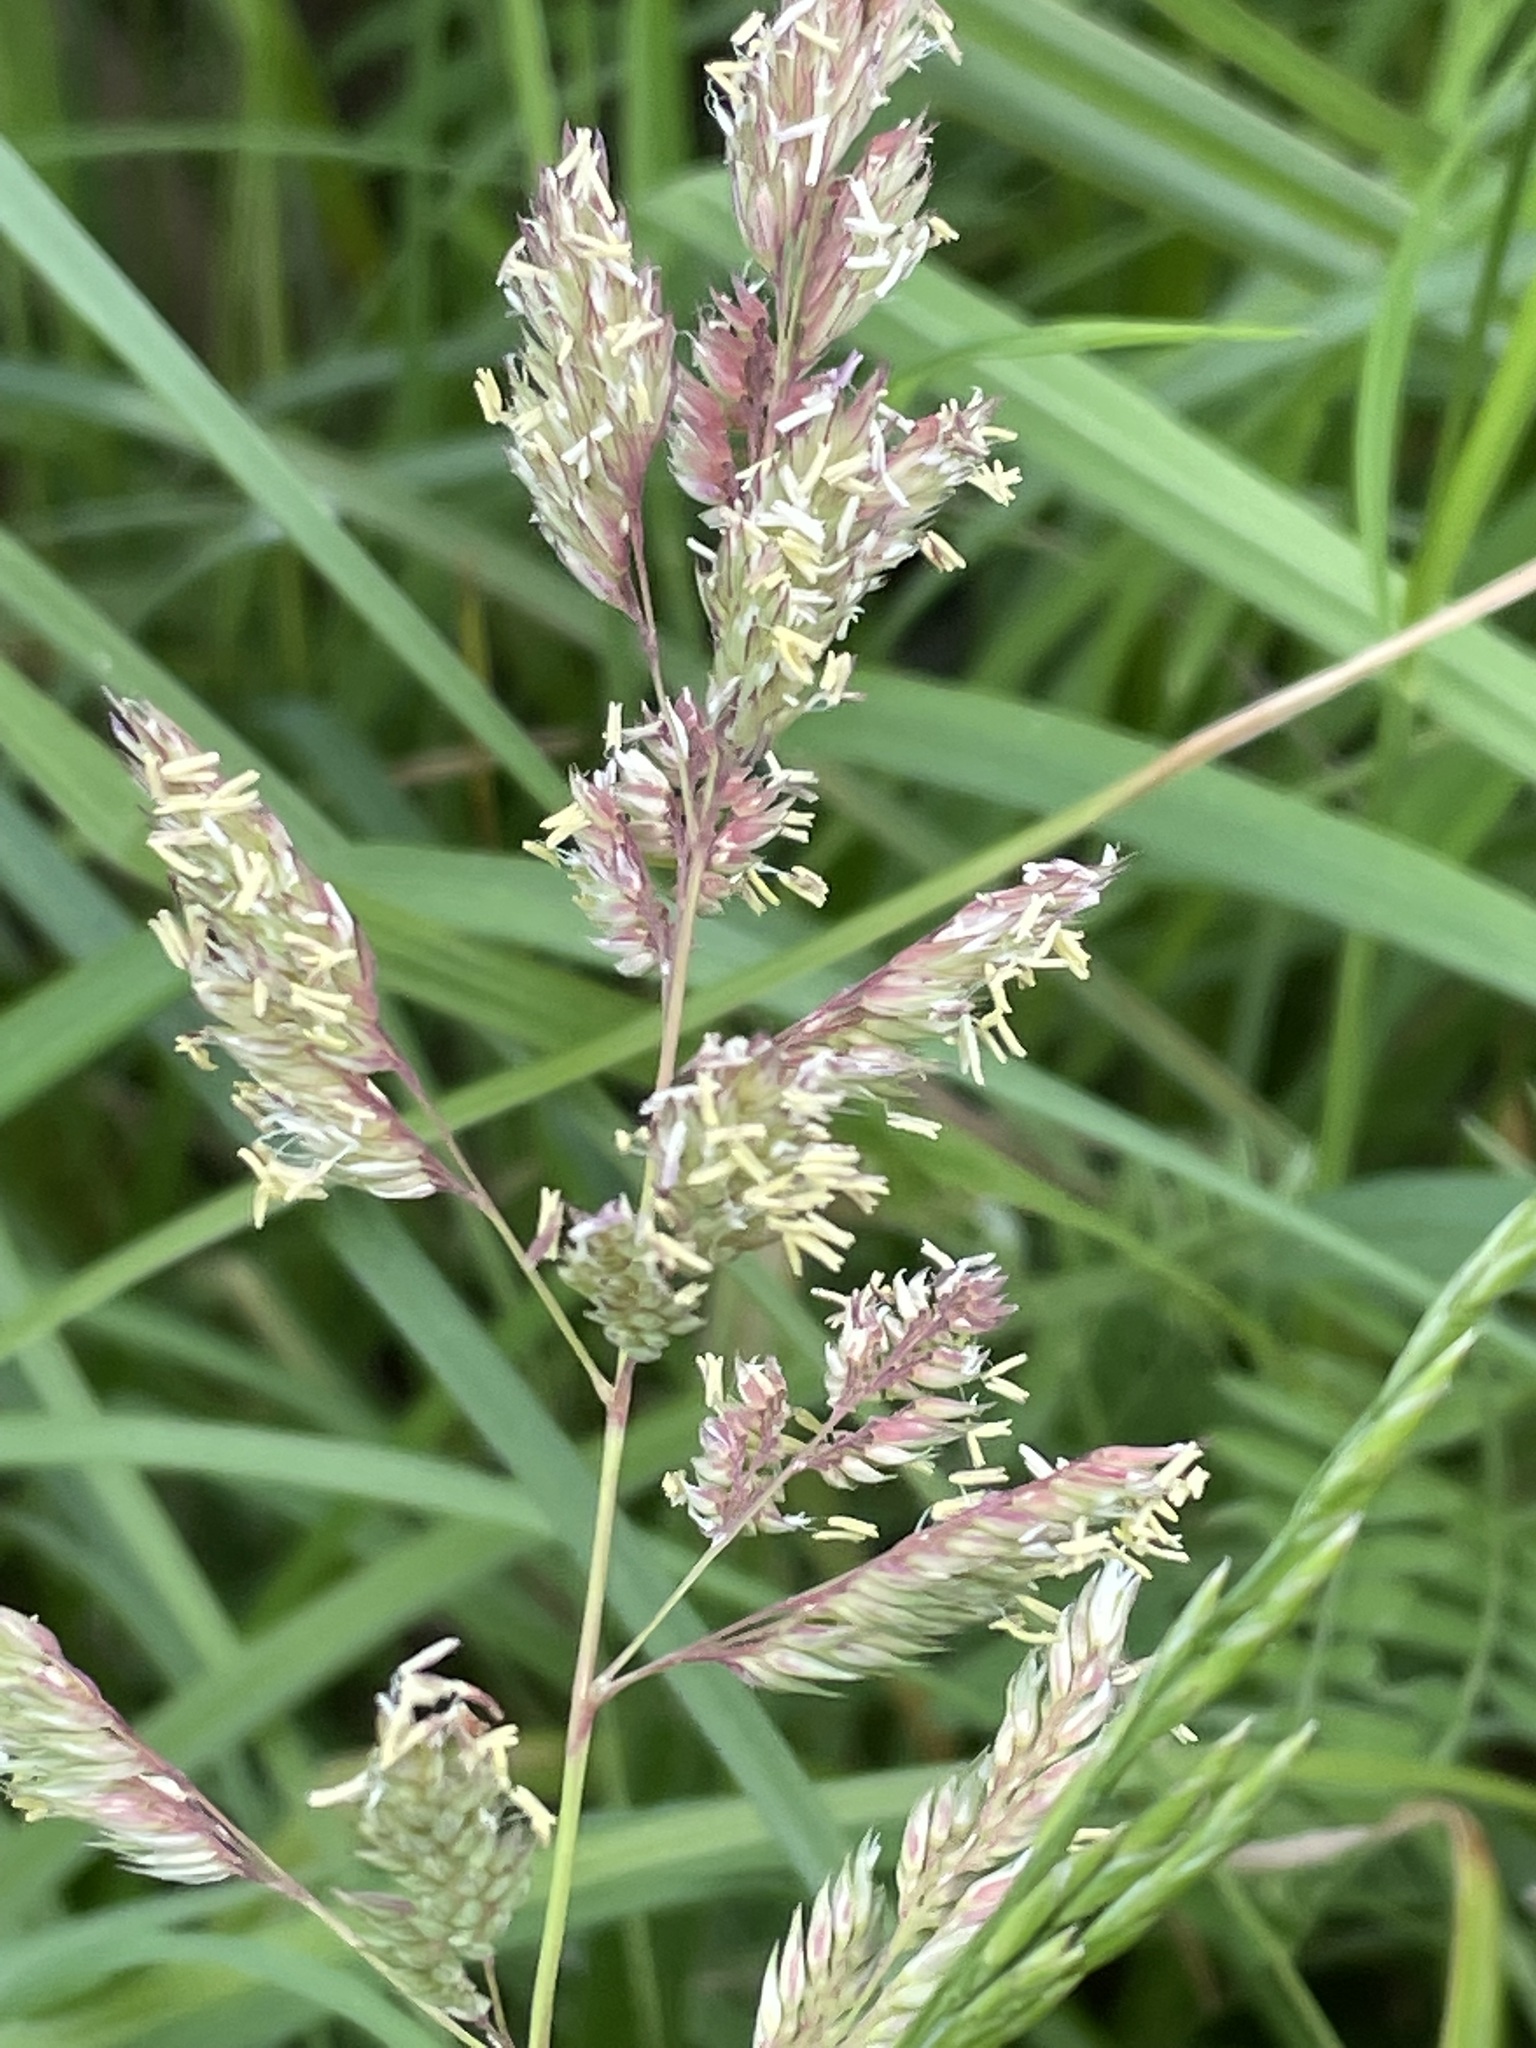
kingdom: Plantae
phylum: Tracheophyta
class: Liliopsida
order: Poales
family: Poaceae
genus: Phalaris
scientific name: Phalaris arundinacea
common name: Reed canary-grass
